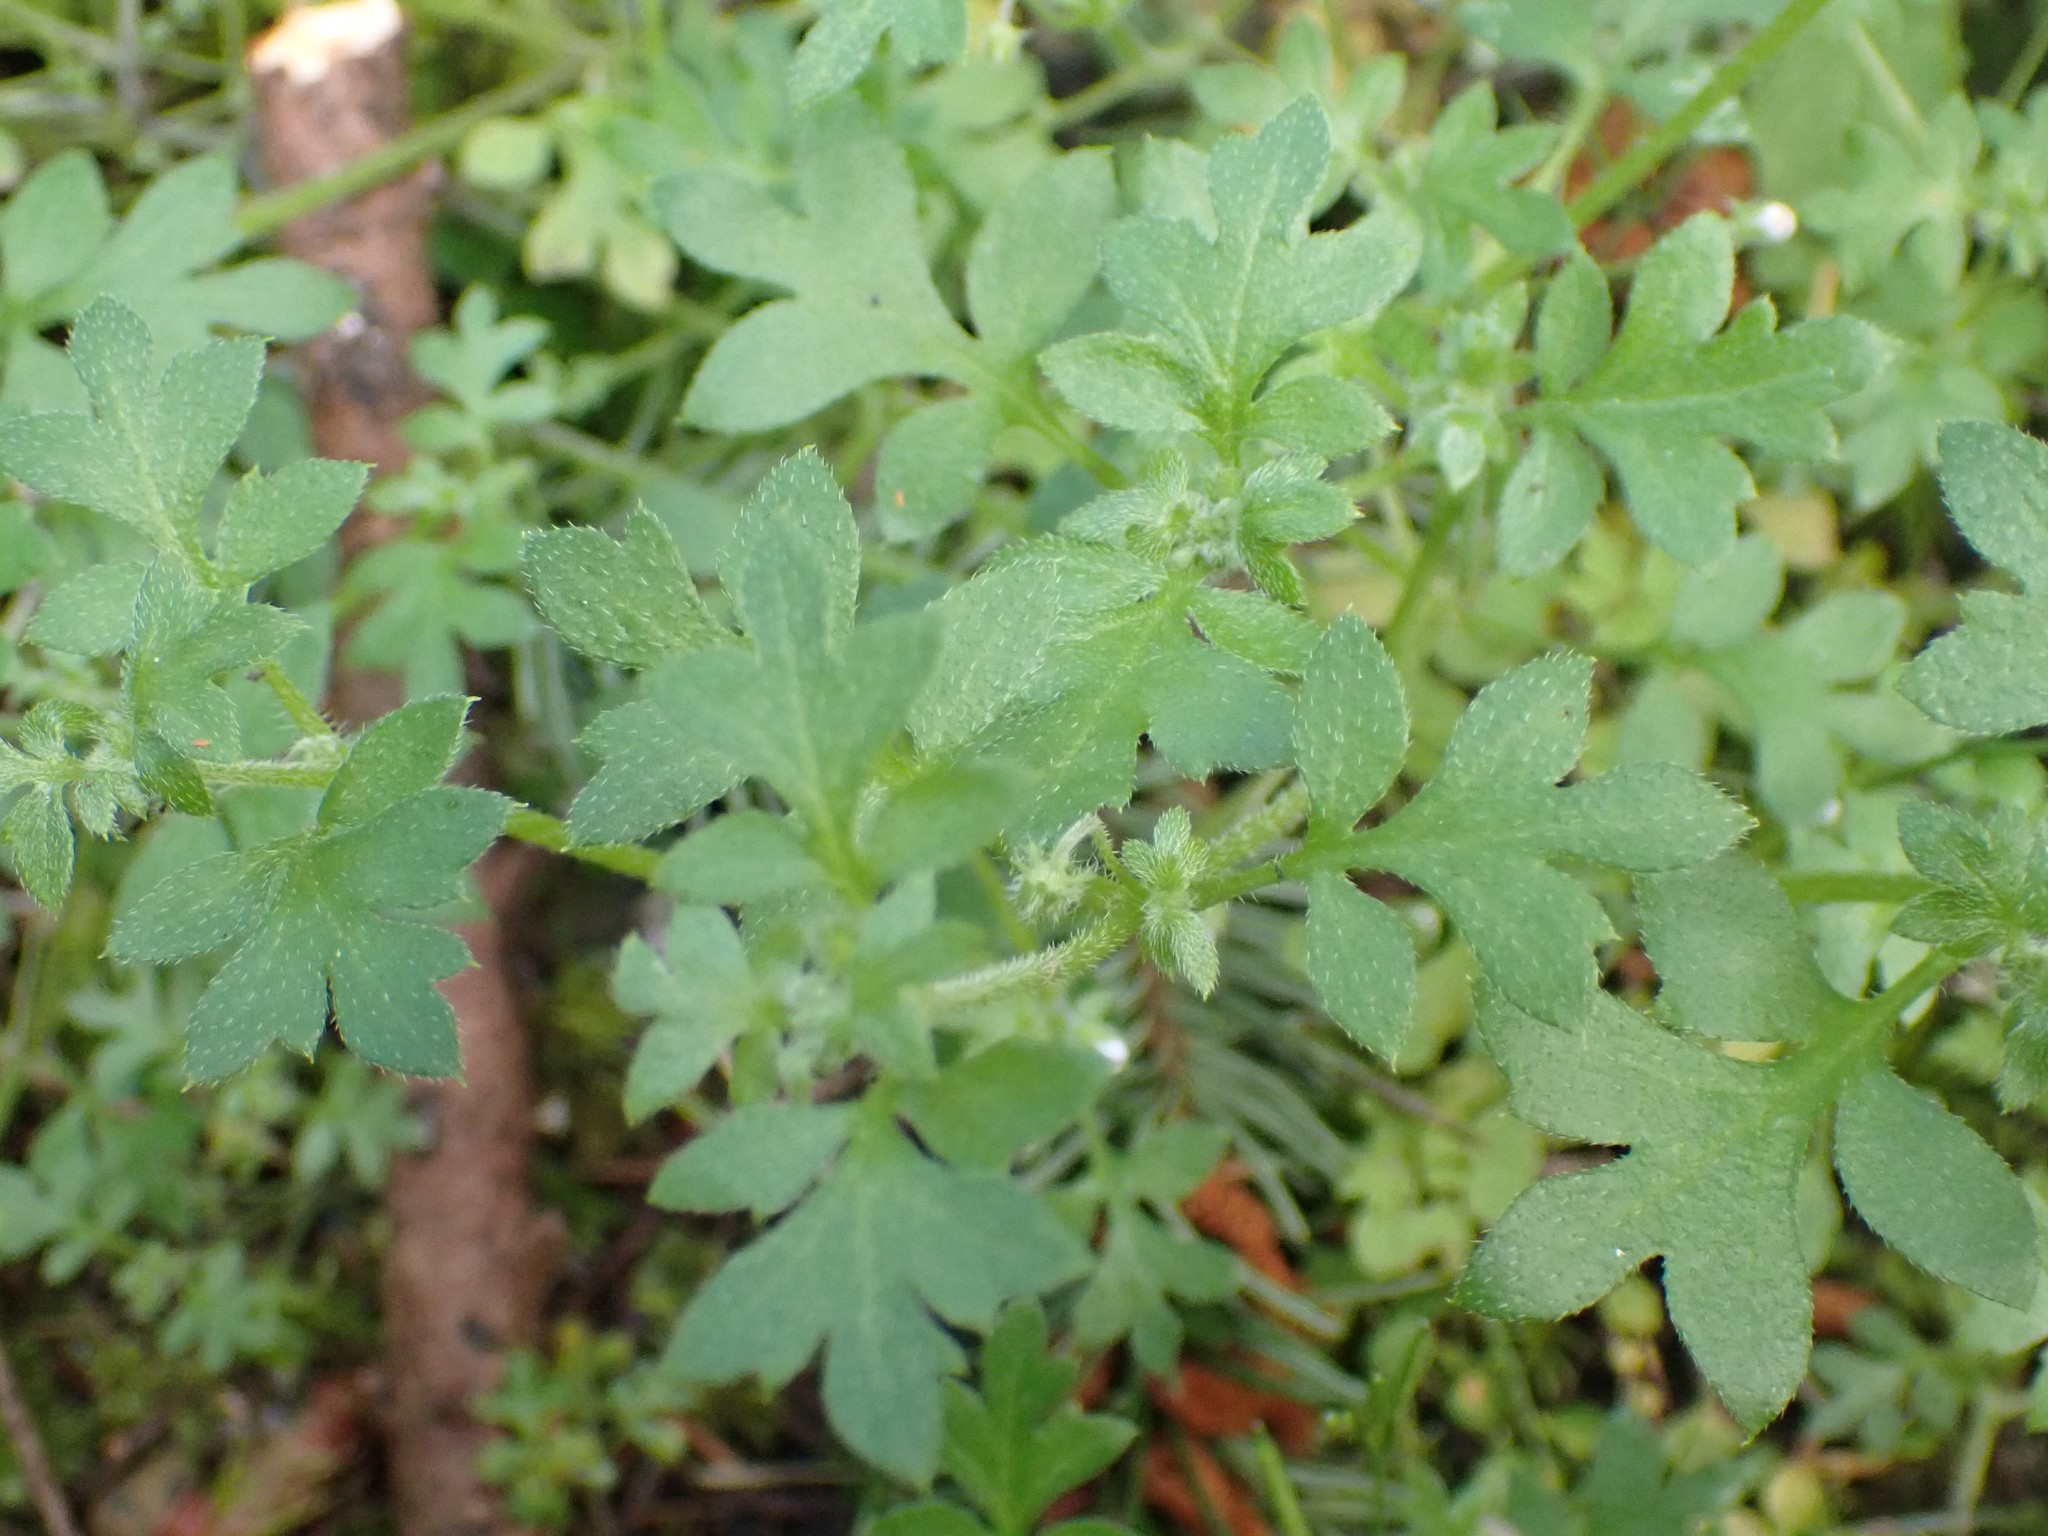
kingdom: Plantae
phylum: Tracheophyta
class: Magnoliopsida
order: Boraginales
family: Hydrophyllaceae
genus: Nemophila
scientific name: Nemophila parviflora
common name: Small-flowered baby-blue-eyes
